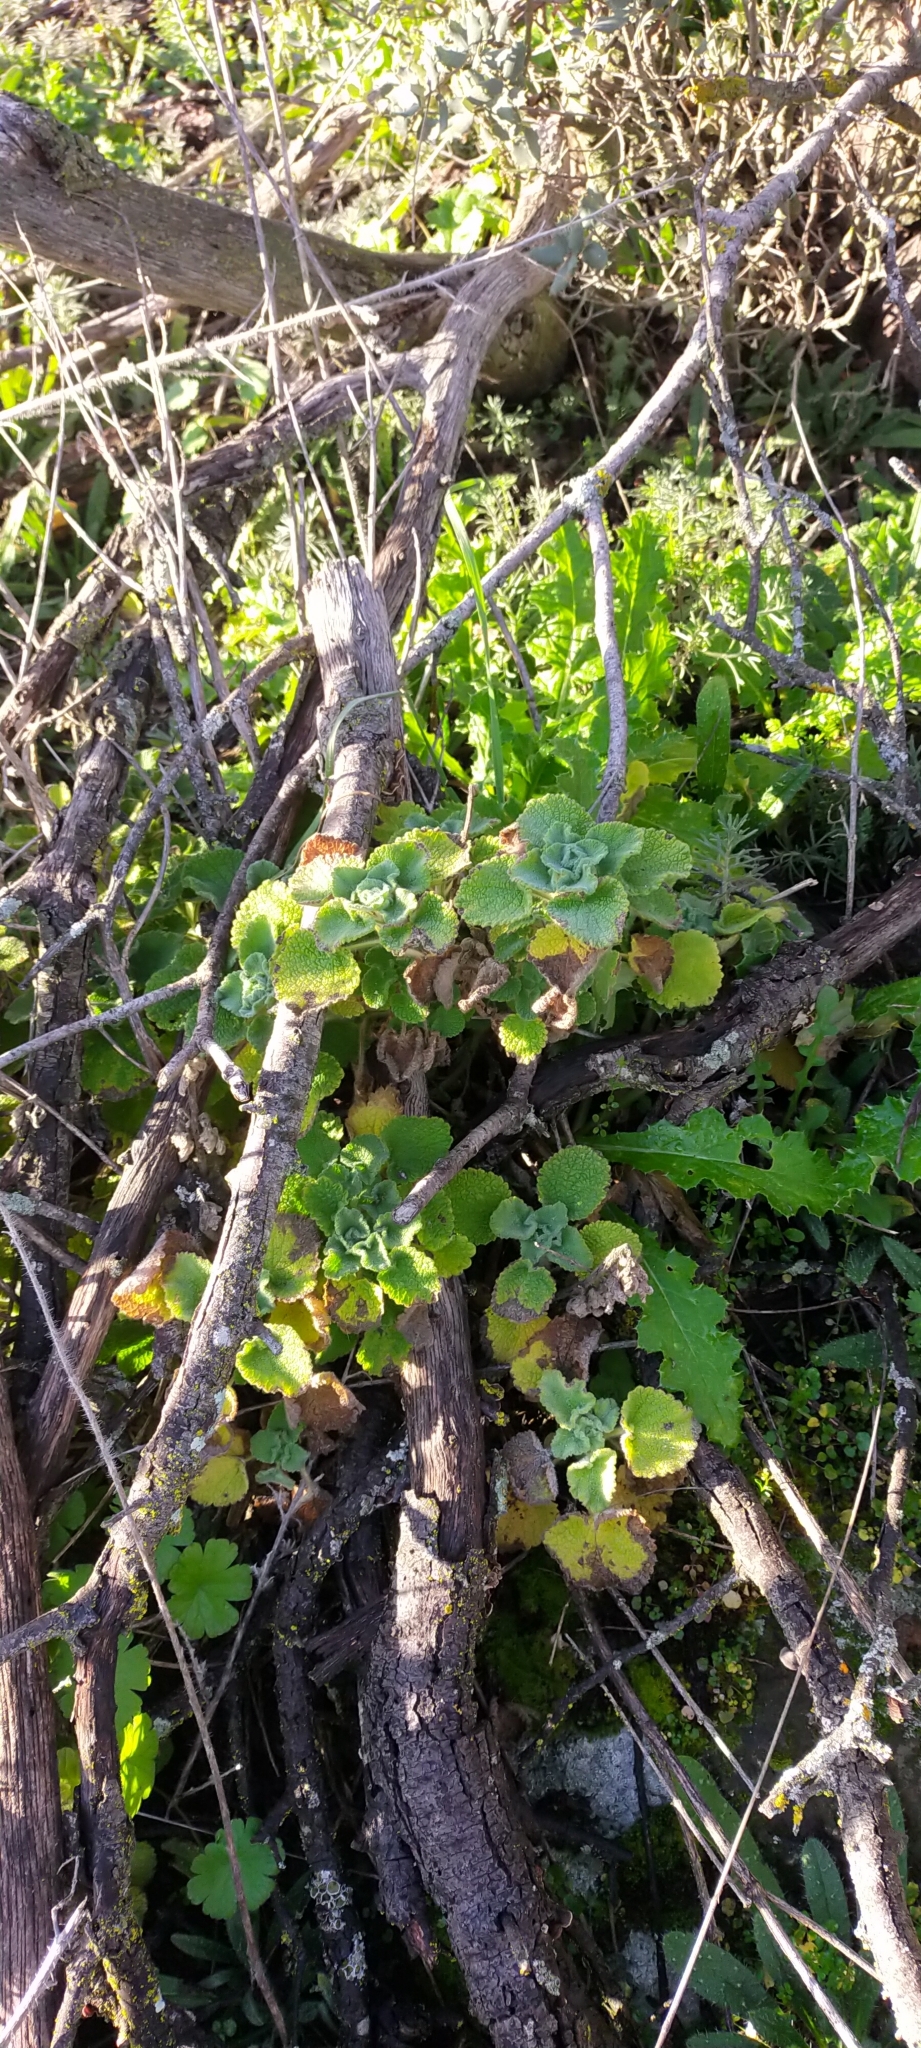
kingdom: Plantae
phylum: Tracheophyta
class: Magnoliopsida
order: Lamiales
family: Lamiaceae
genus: Pseudodictamnus
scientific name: Pseudodictamnus hirsutus
